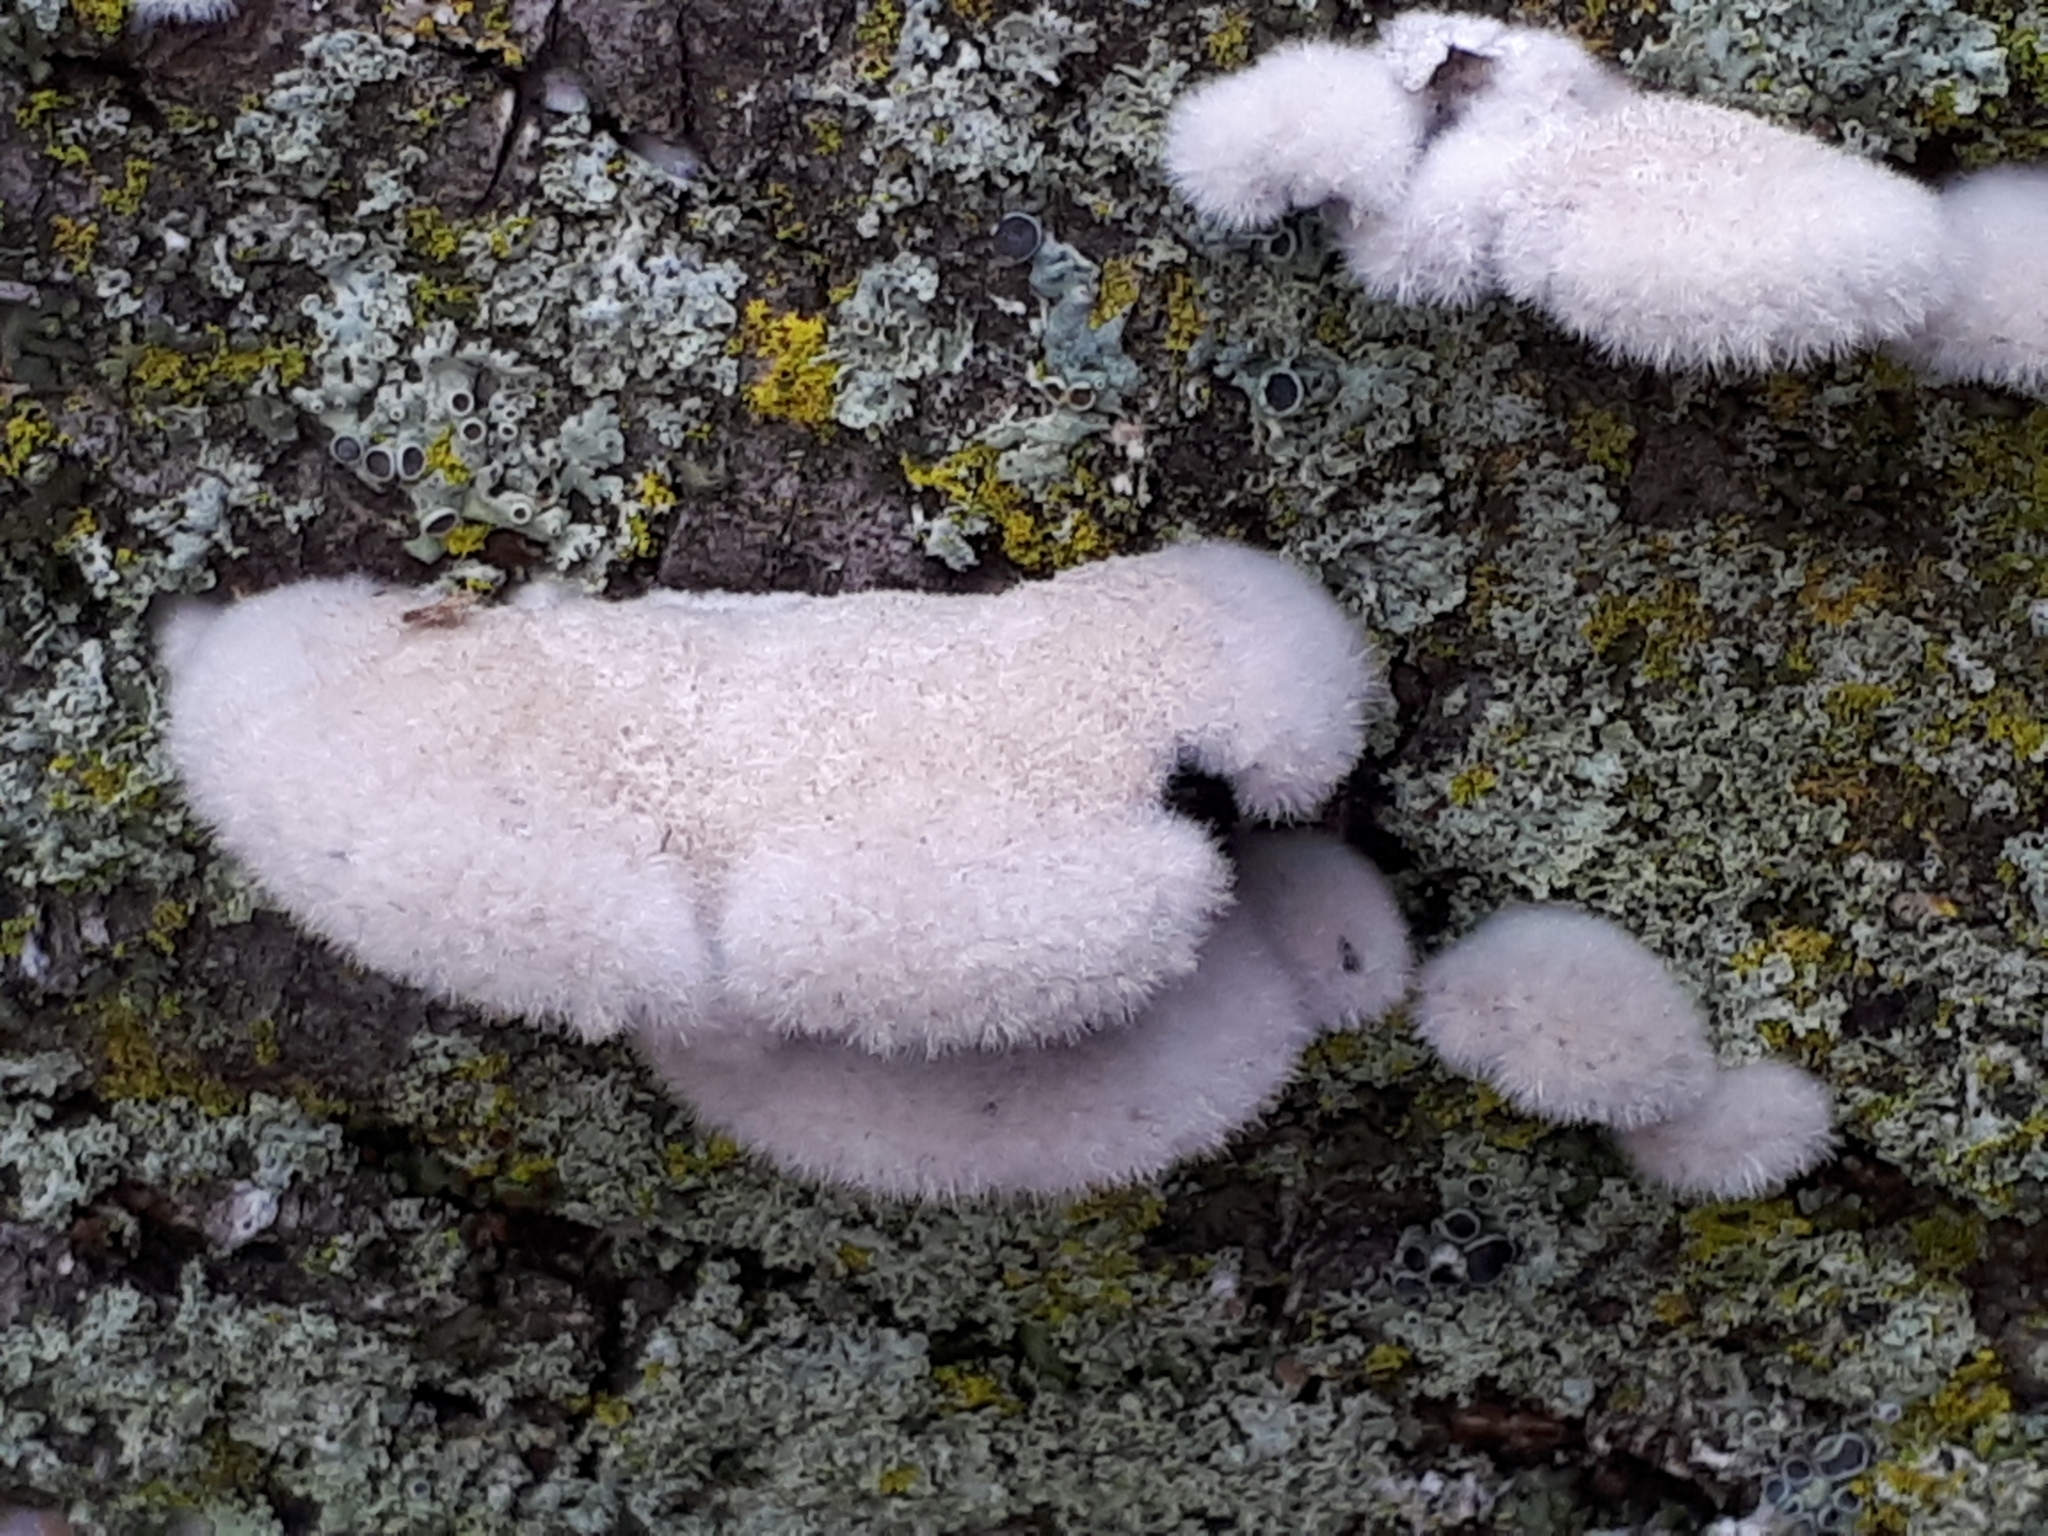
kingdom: Fungi
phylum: Basidiomycota
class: Agaricomycetes
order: Agaricales
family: Schizophyllaceae
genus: Schizophyllum
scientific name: Schizophyllum commune
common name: Common porecrust
